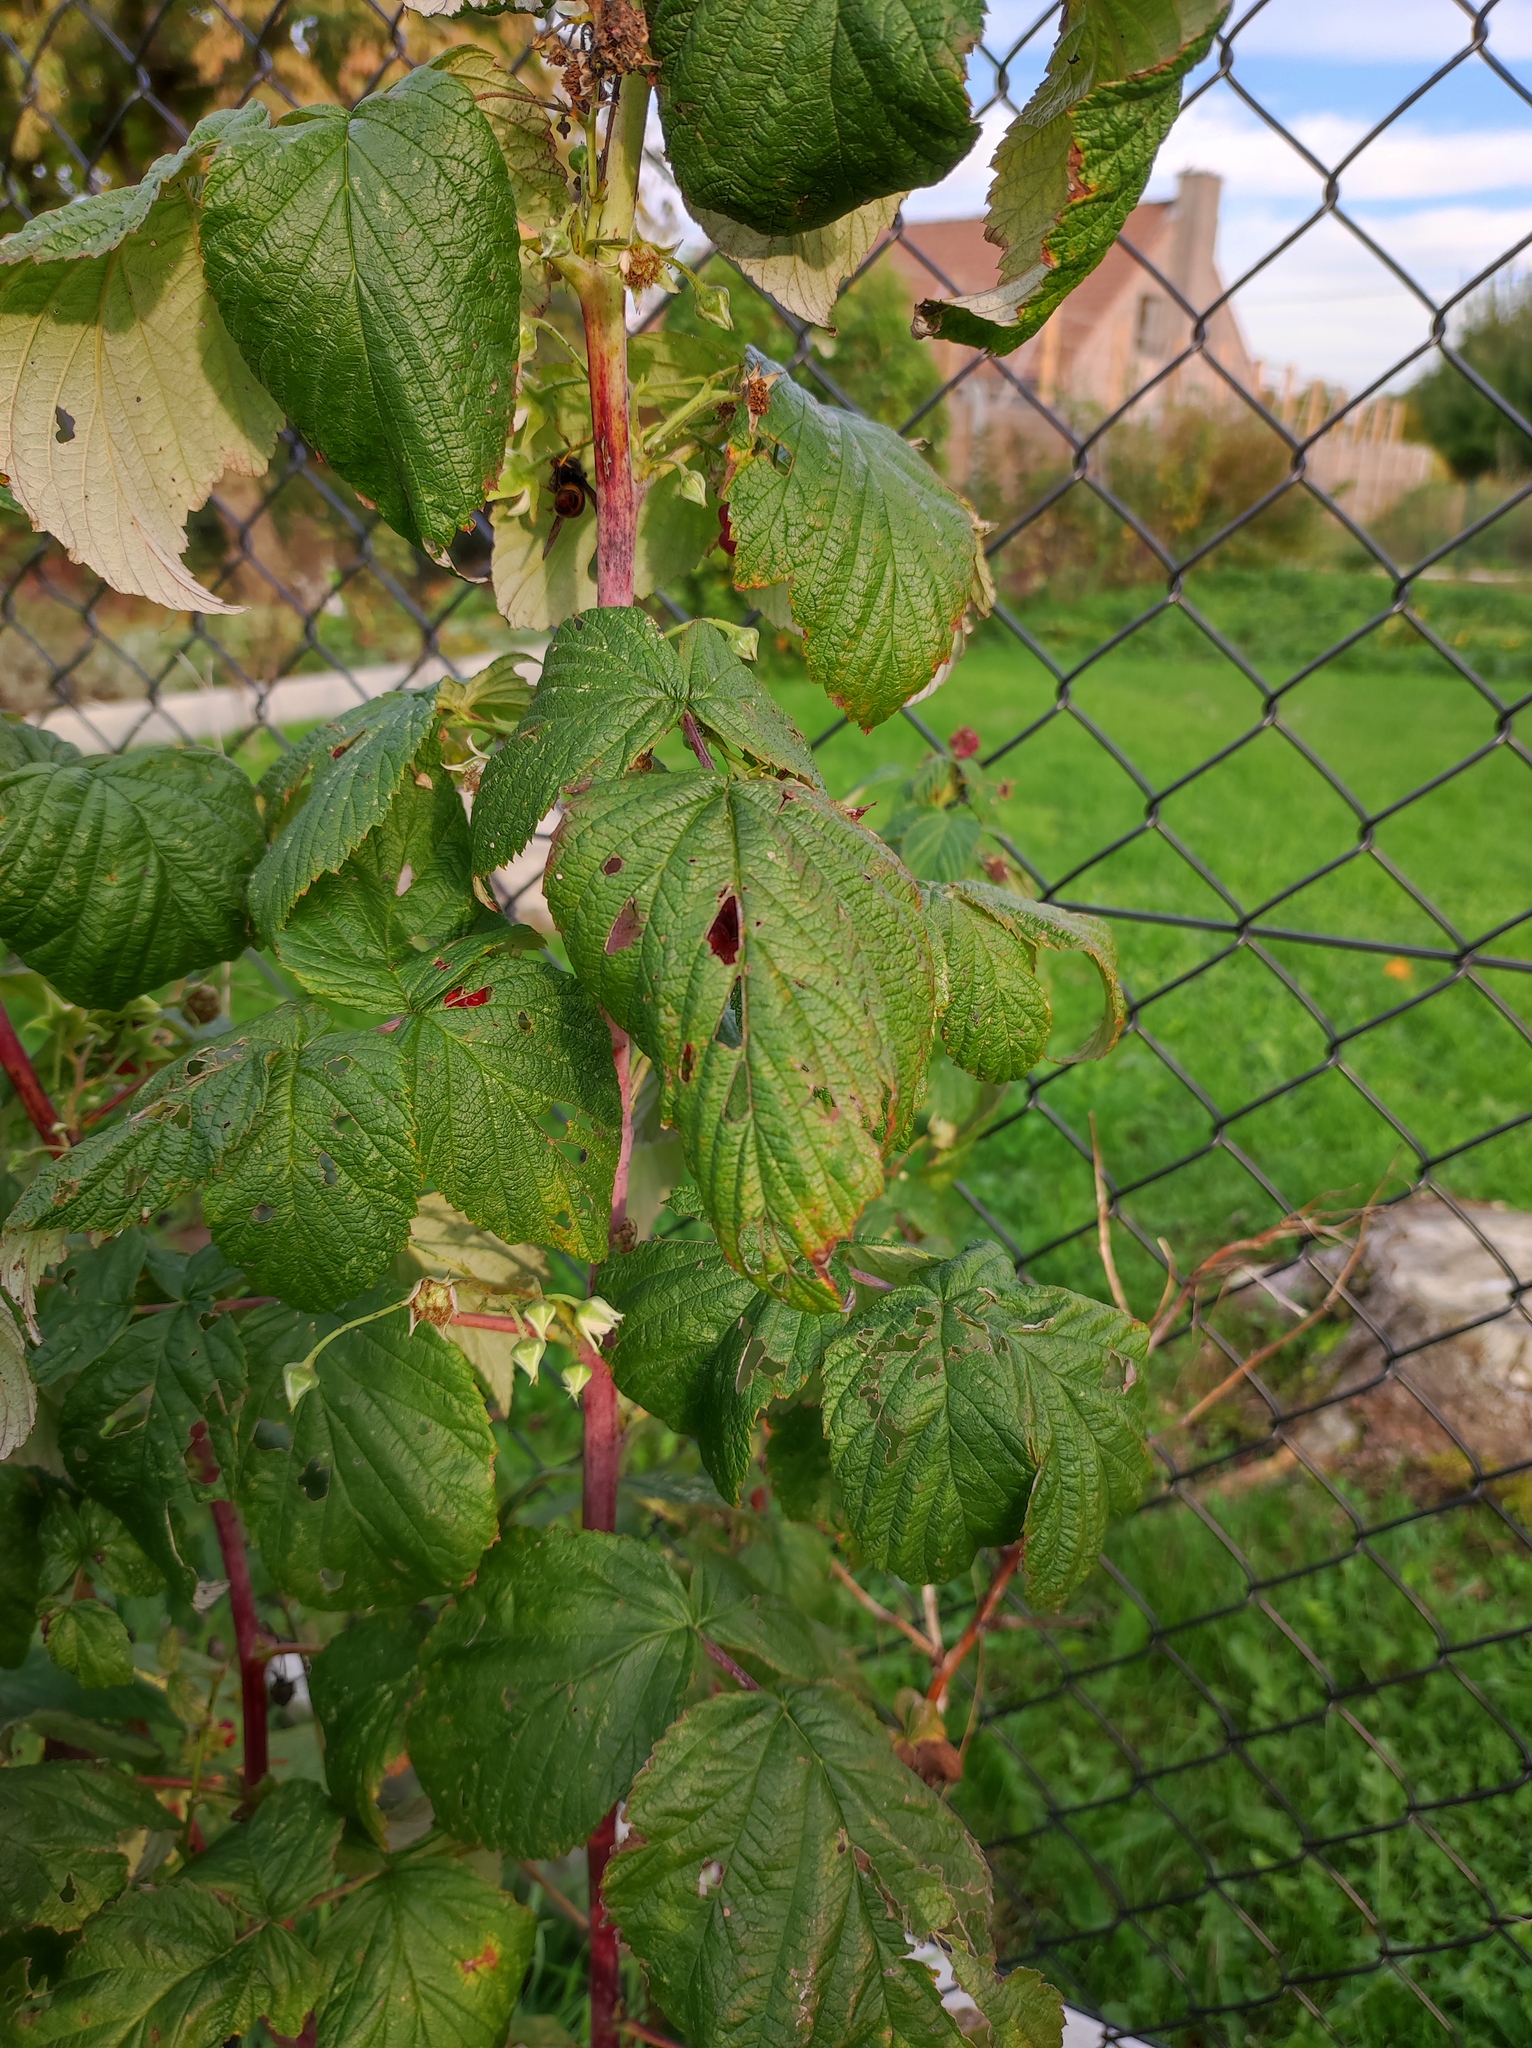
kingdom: Animalia
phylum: Arthropoda
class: Insecta
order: Hymenoptera
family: Vespidae
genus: Vespa
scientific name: Vespa velutina
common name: Asian hornet
